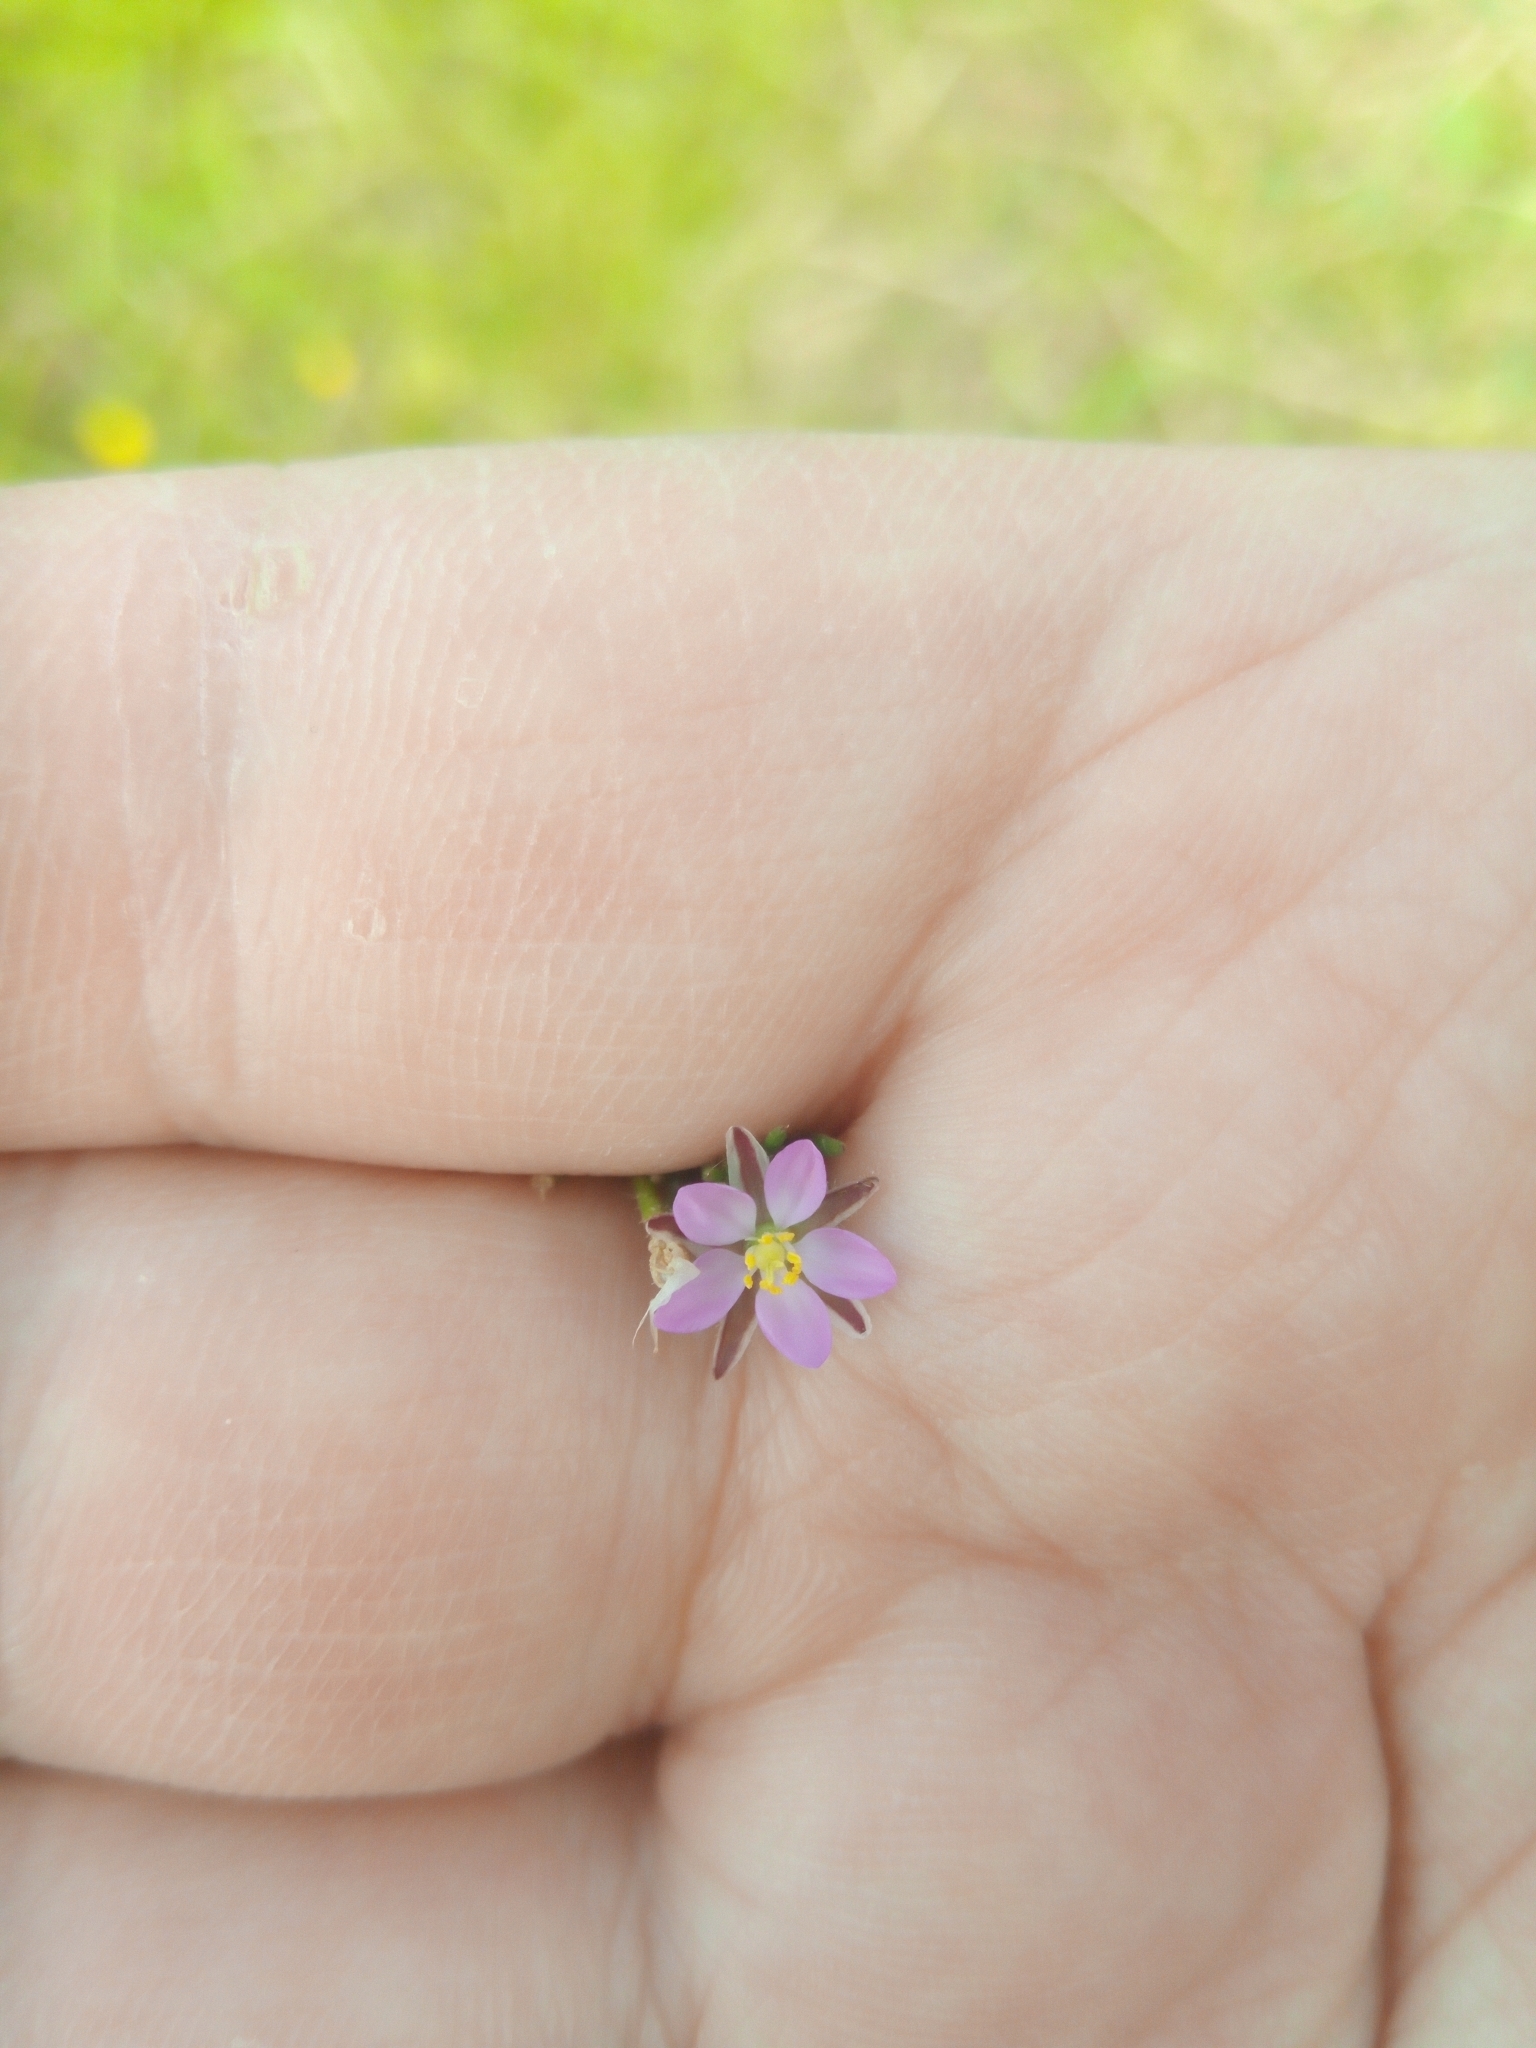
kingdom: Plantae
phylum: Tracheophyta
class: Magnoliopsida
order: Caryophyllales
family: Caryophyllaceae
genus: Spergularia
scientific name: Spergularia rubra
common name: Red sand-spurrey
